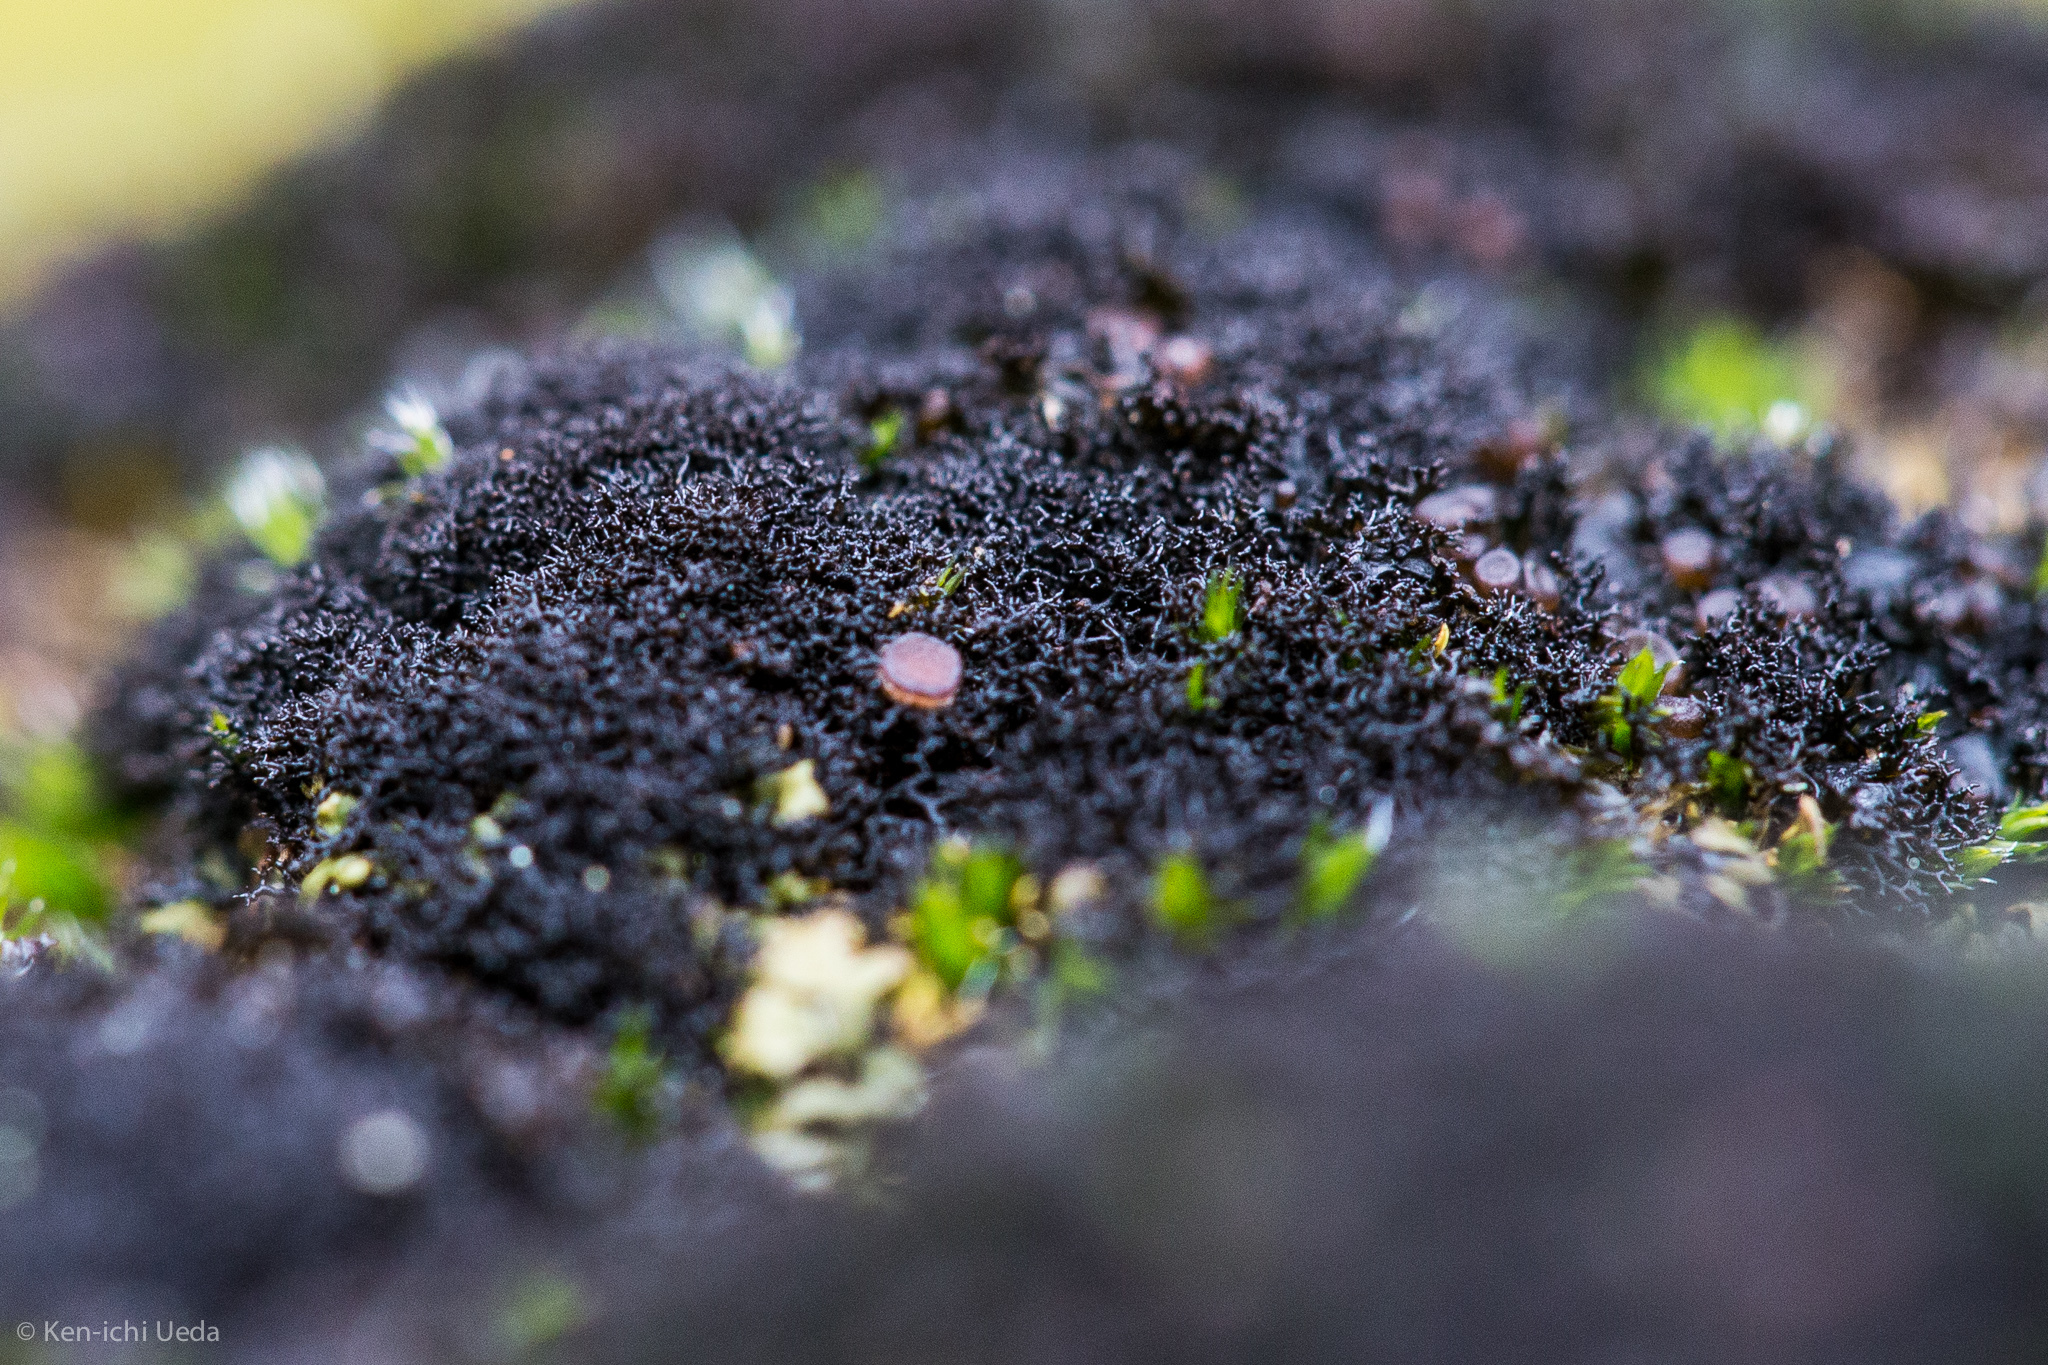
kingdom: Fungi
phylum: Ascomycota
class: Lecanoromycetes
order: Peltigerales
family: Massalongiaceae
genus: Polychidium
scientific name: Polychidium muscicola
